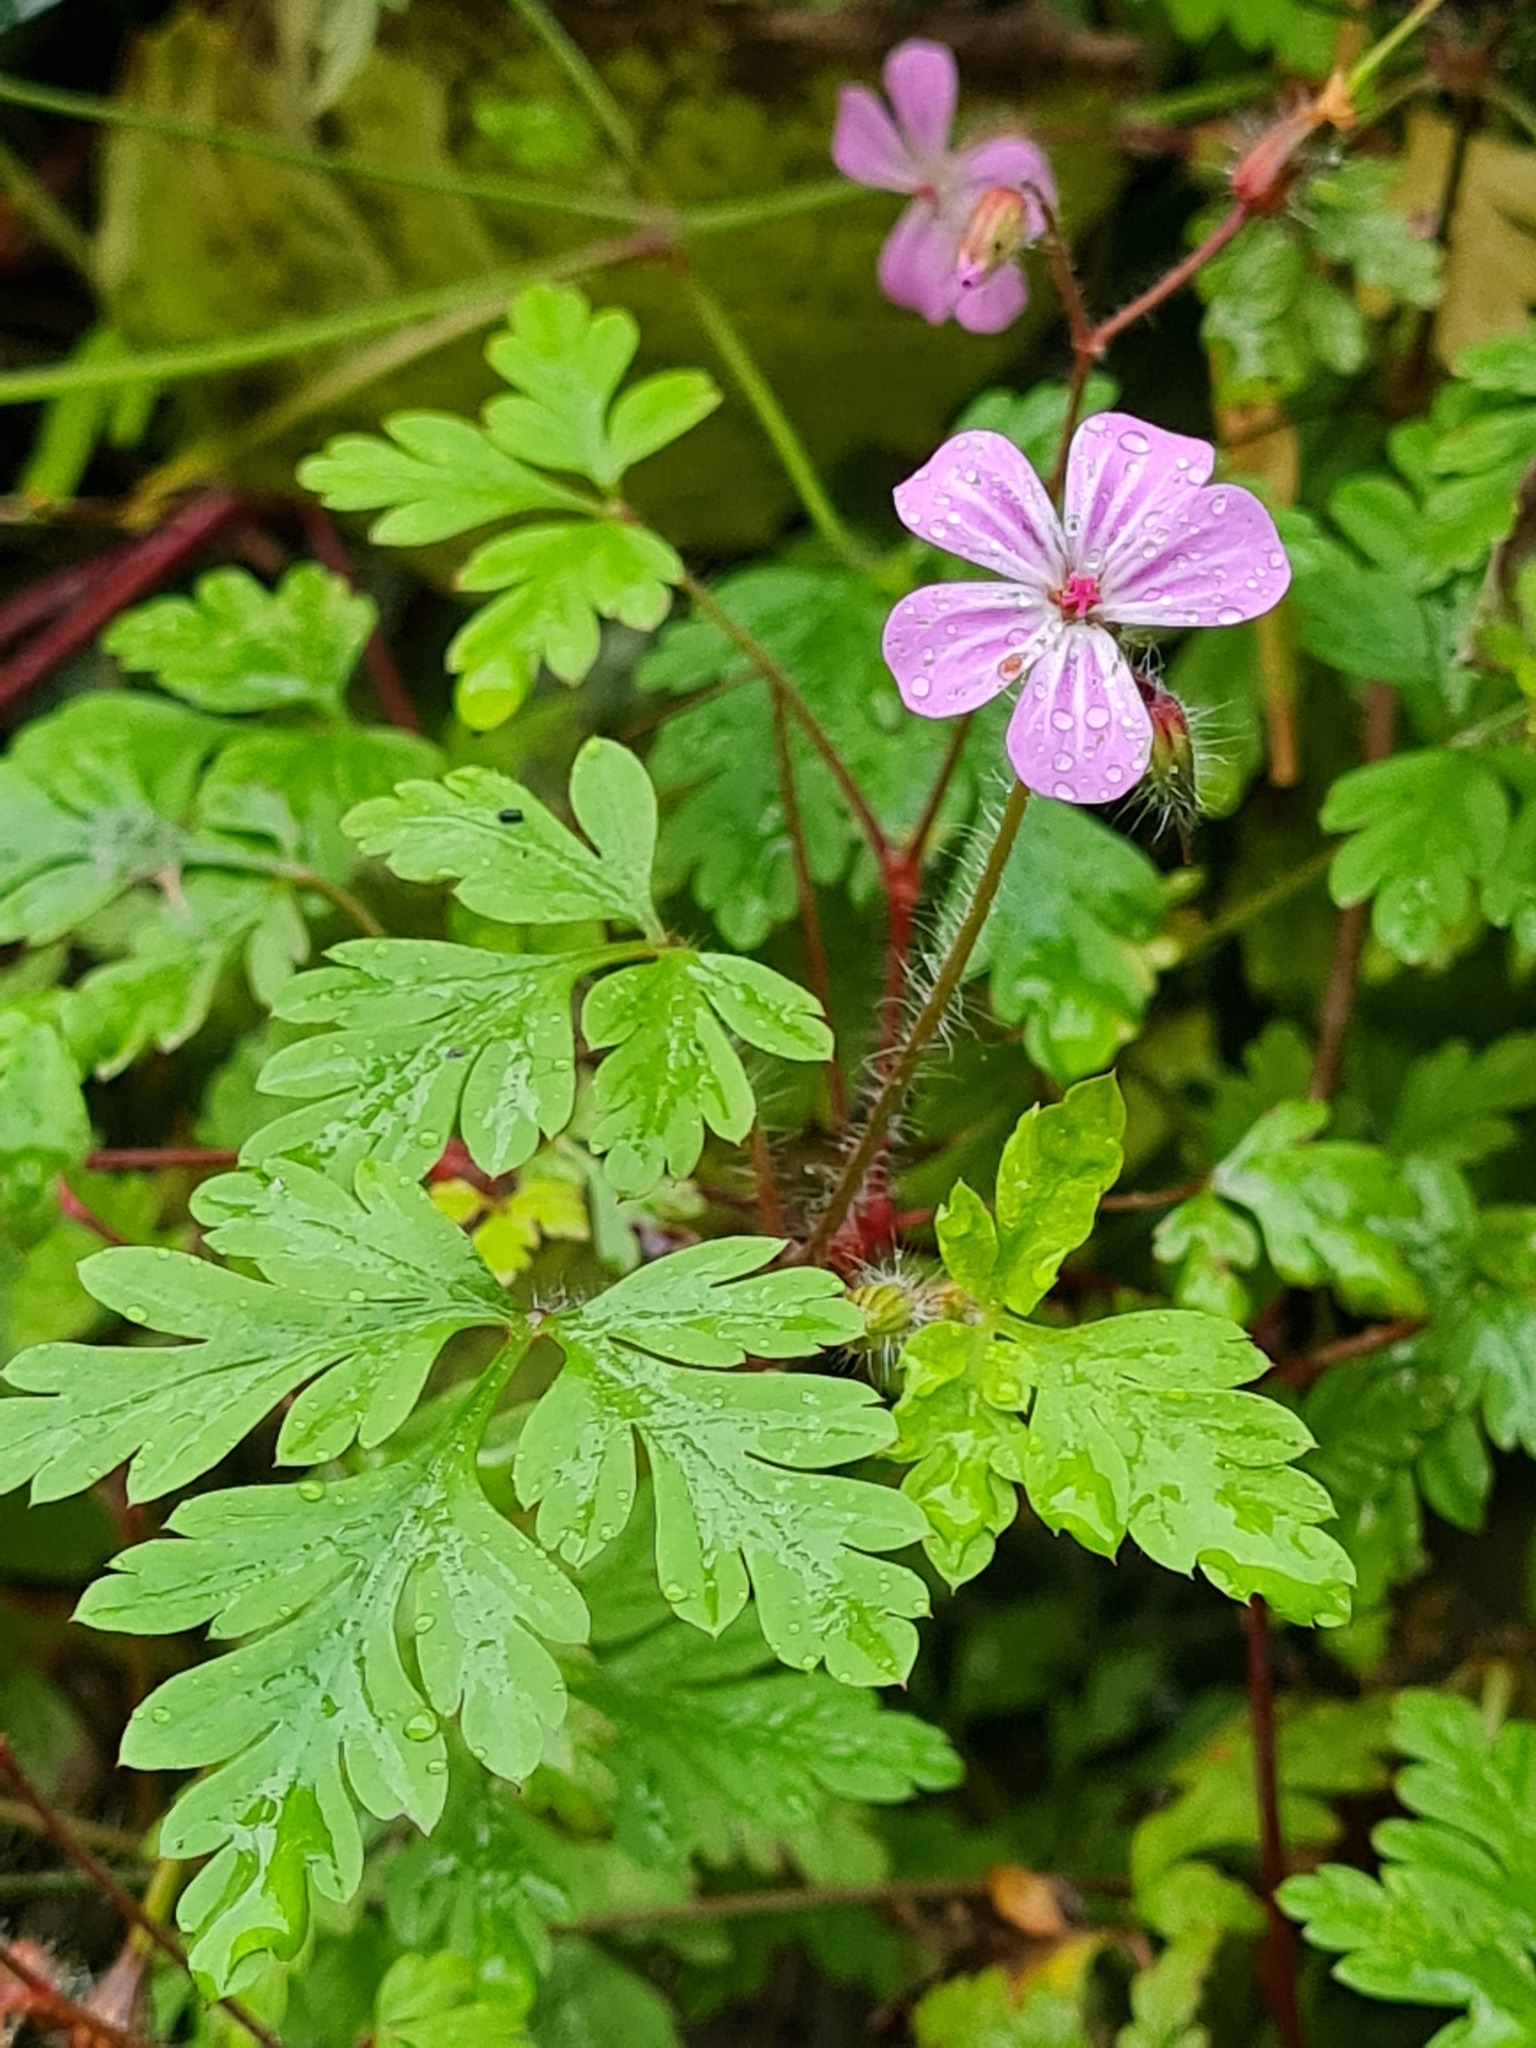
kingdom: Plantae
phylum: Tracheophyta
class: Magnoliopsida
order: Geraniales
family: Geraniaceae
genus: Geranium
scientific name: Geranium robertianum
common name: Herb-robert
